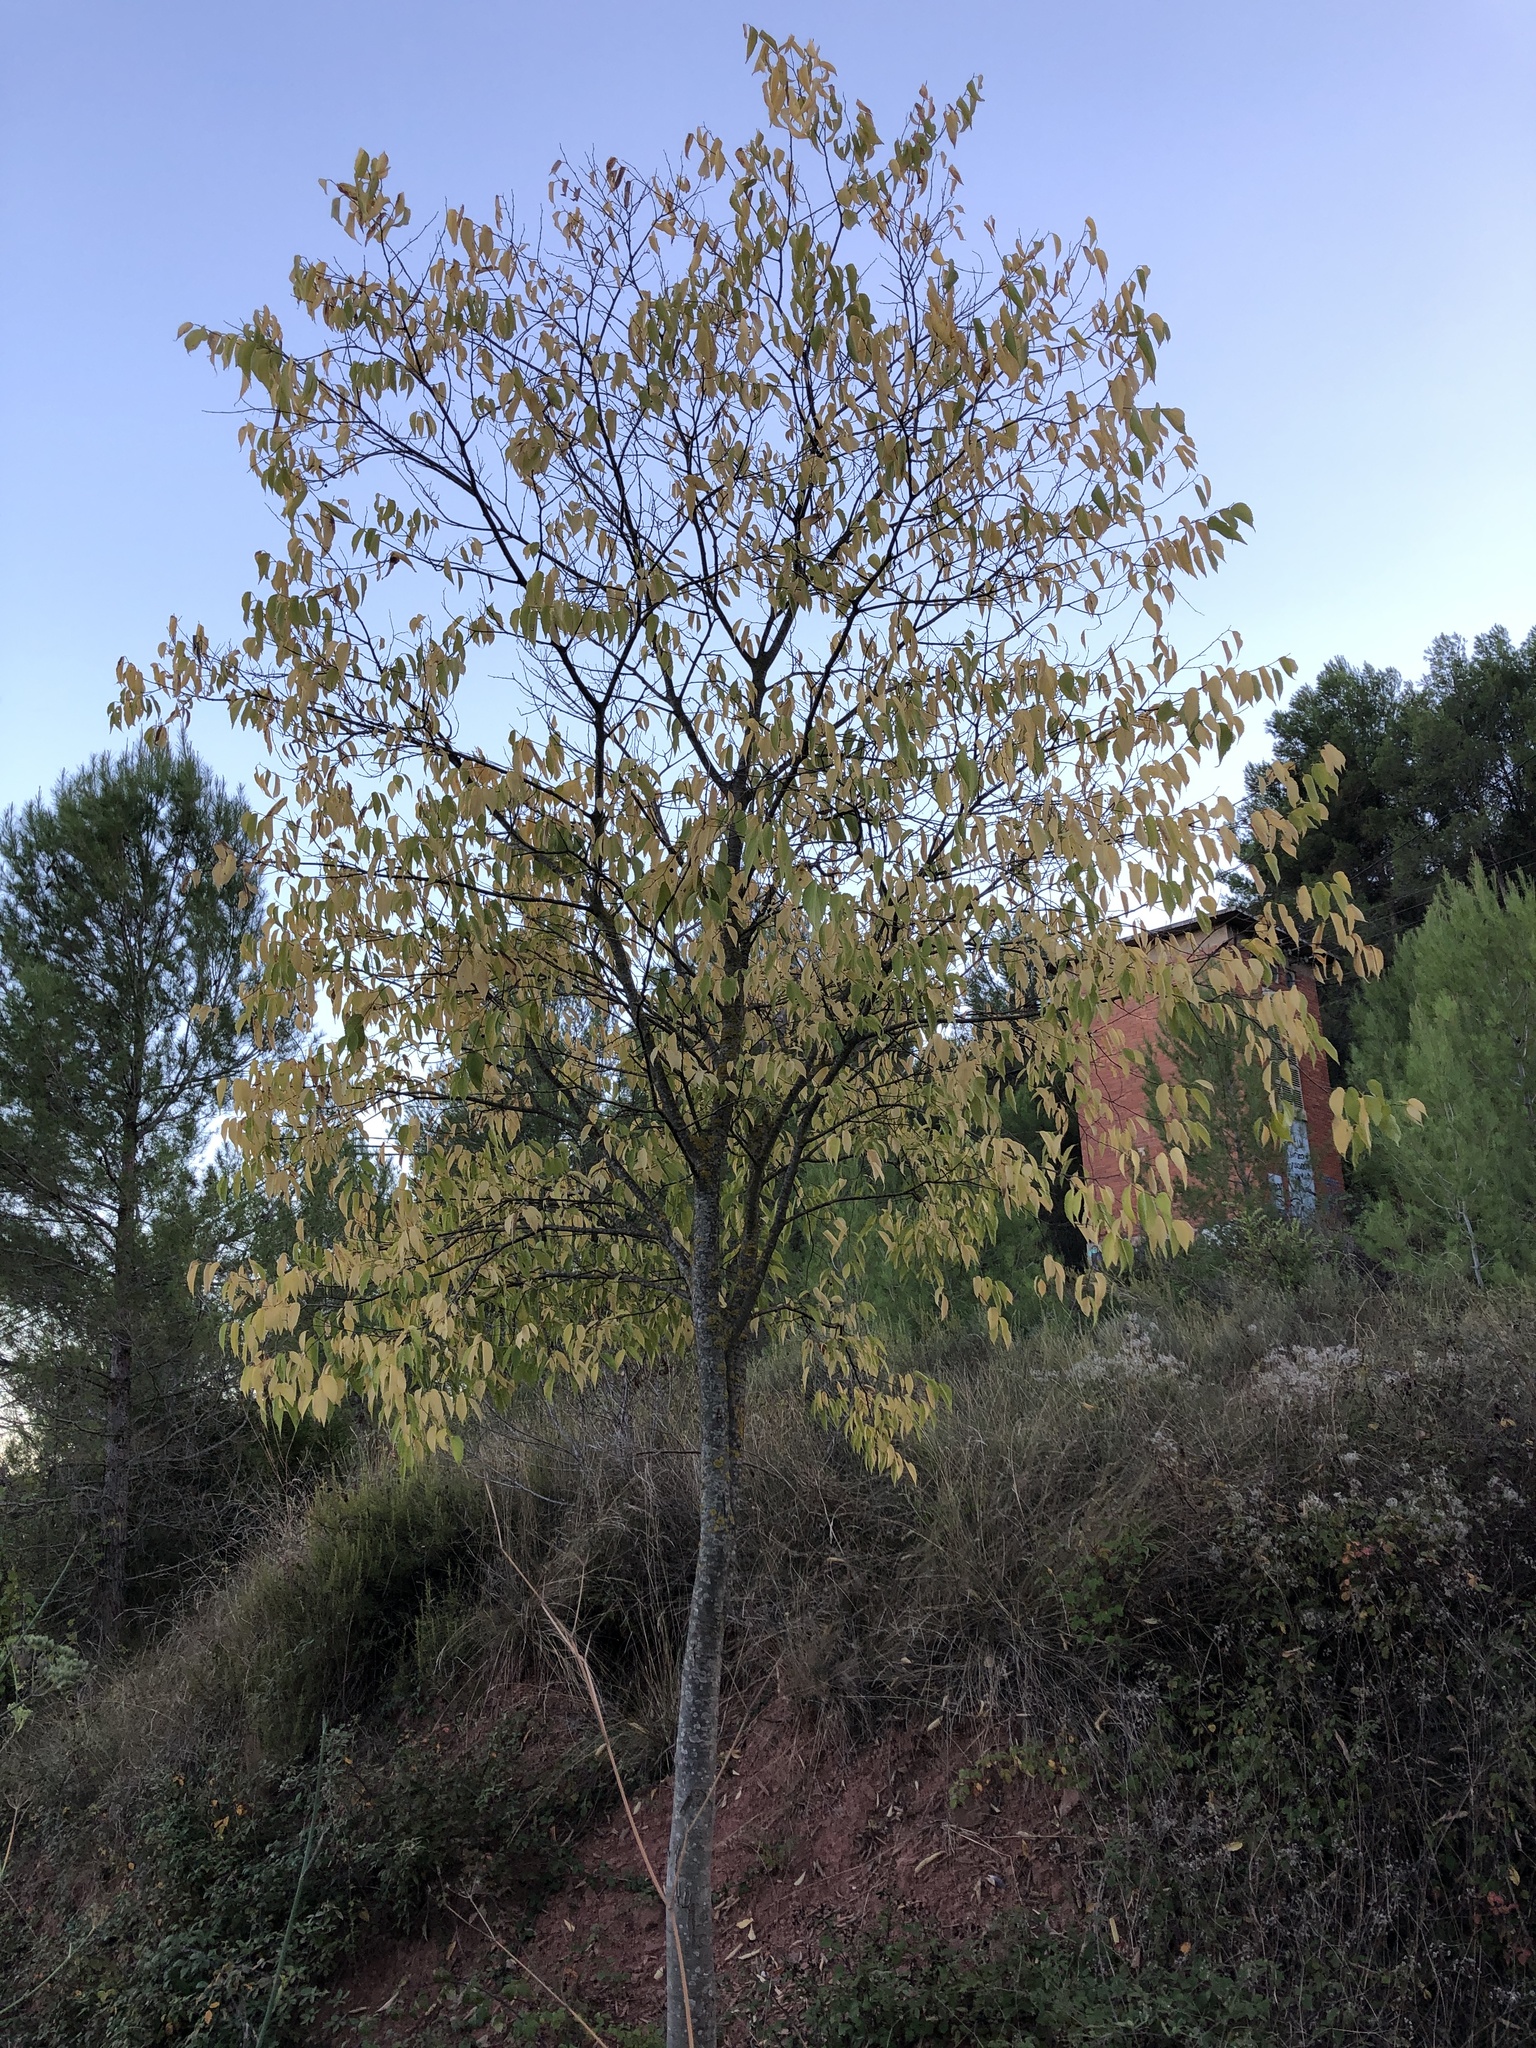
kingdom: Plantae
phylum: Tracheophyta
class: Magnoliopsida
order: Rosales
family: Cannabaceae
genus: Celtis
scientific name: Celtis australis
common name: European hackberry
